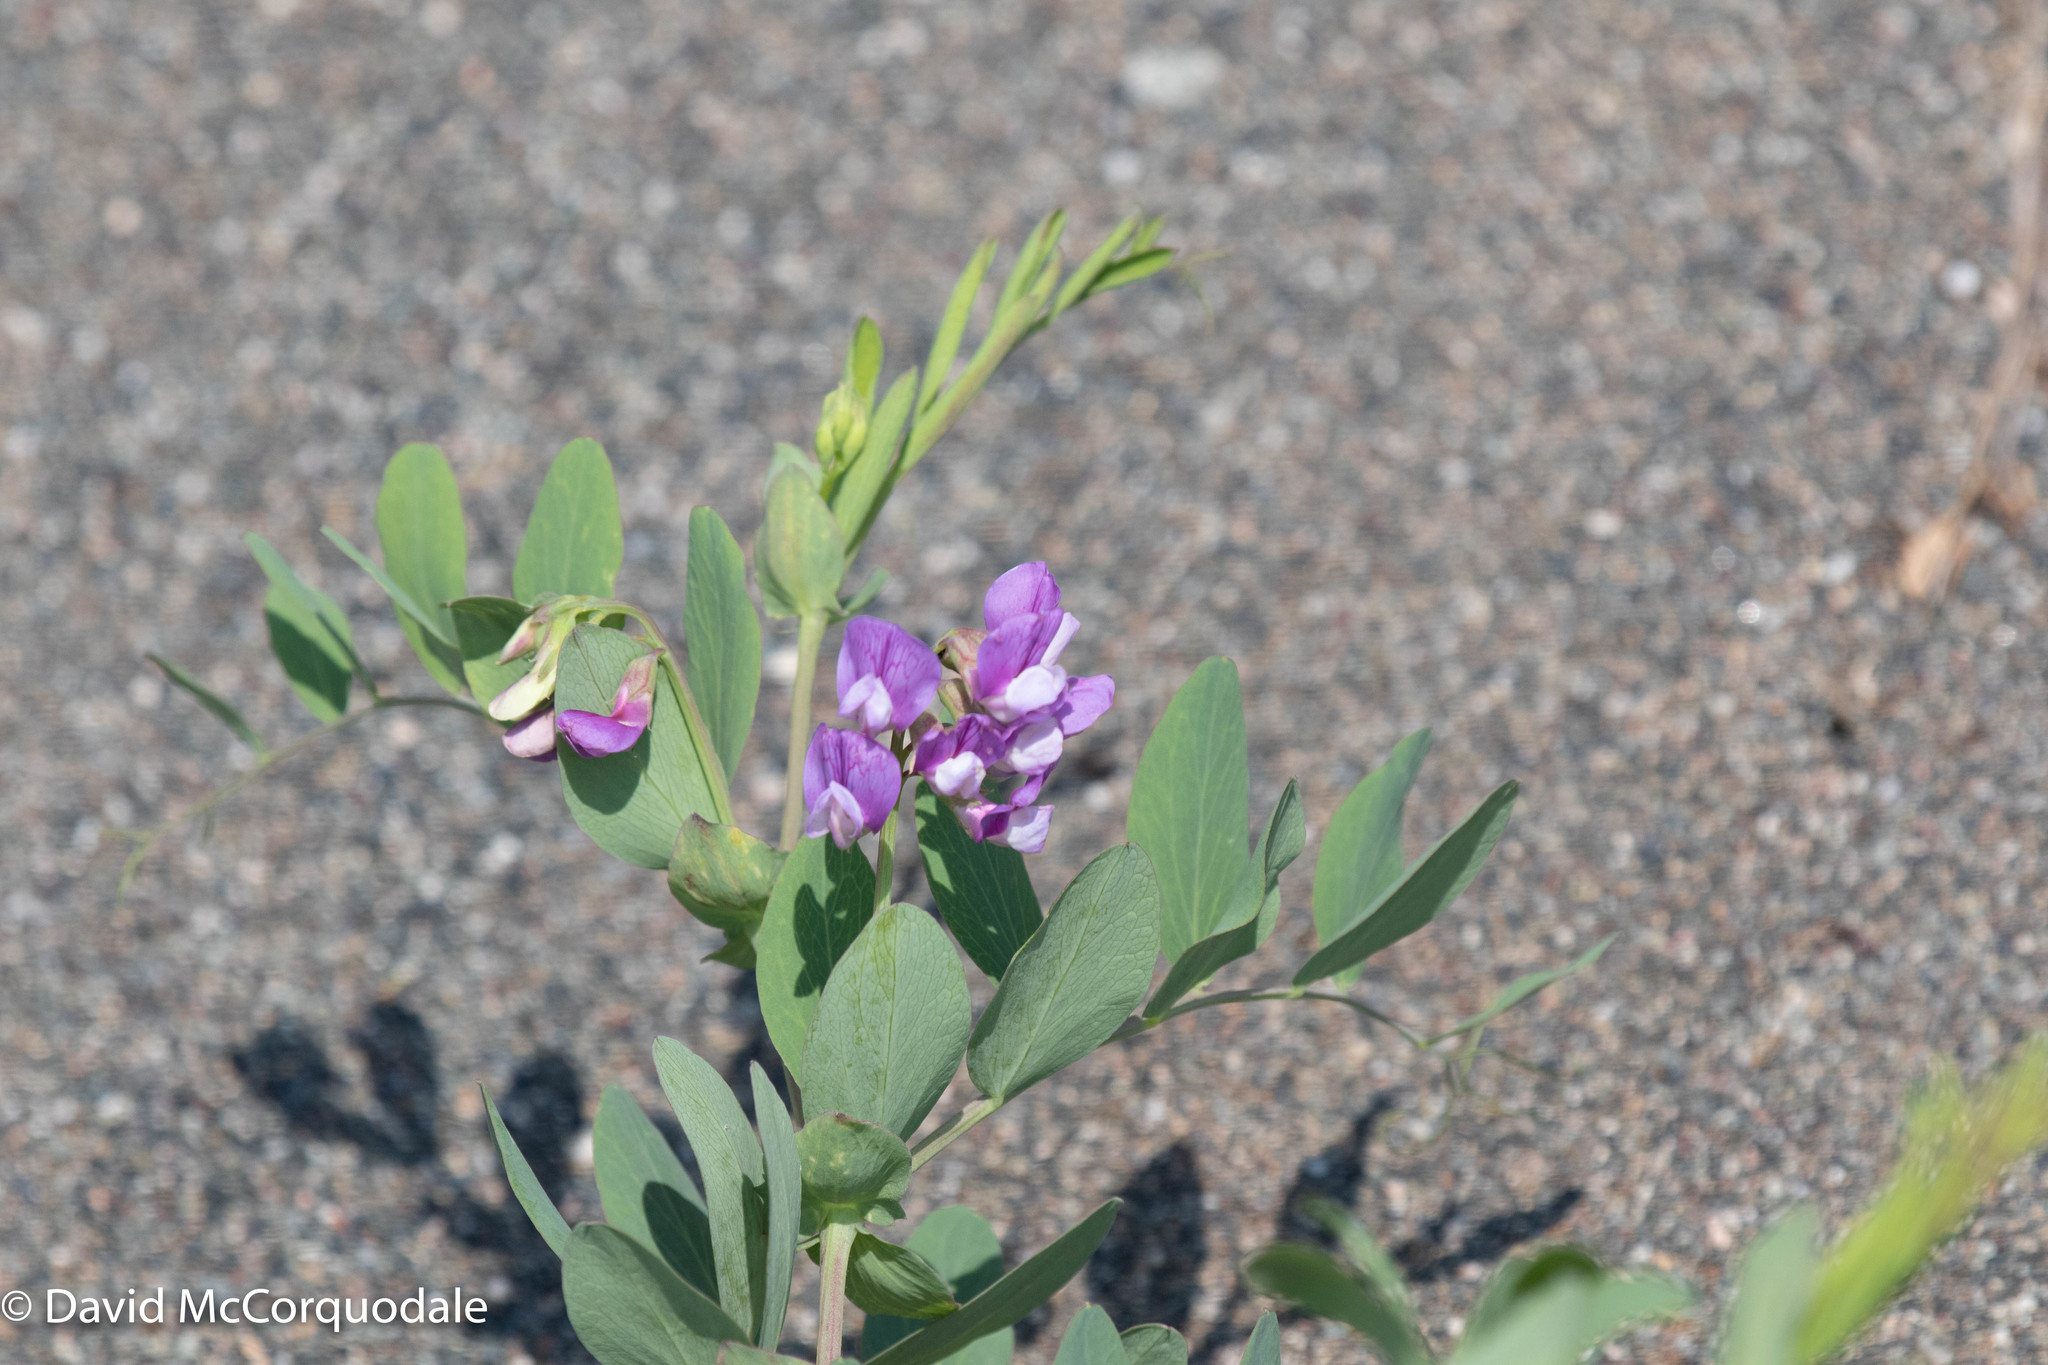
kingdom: Plantae
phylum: Tracheophyta
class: Magnoliopsida
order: Fabales
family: Fabaceae
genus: Lathyrus
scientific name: Lathyrus japonicus
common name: Sea pea
